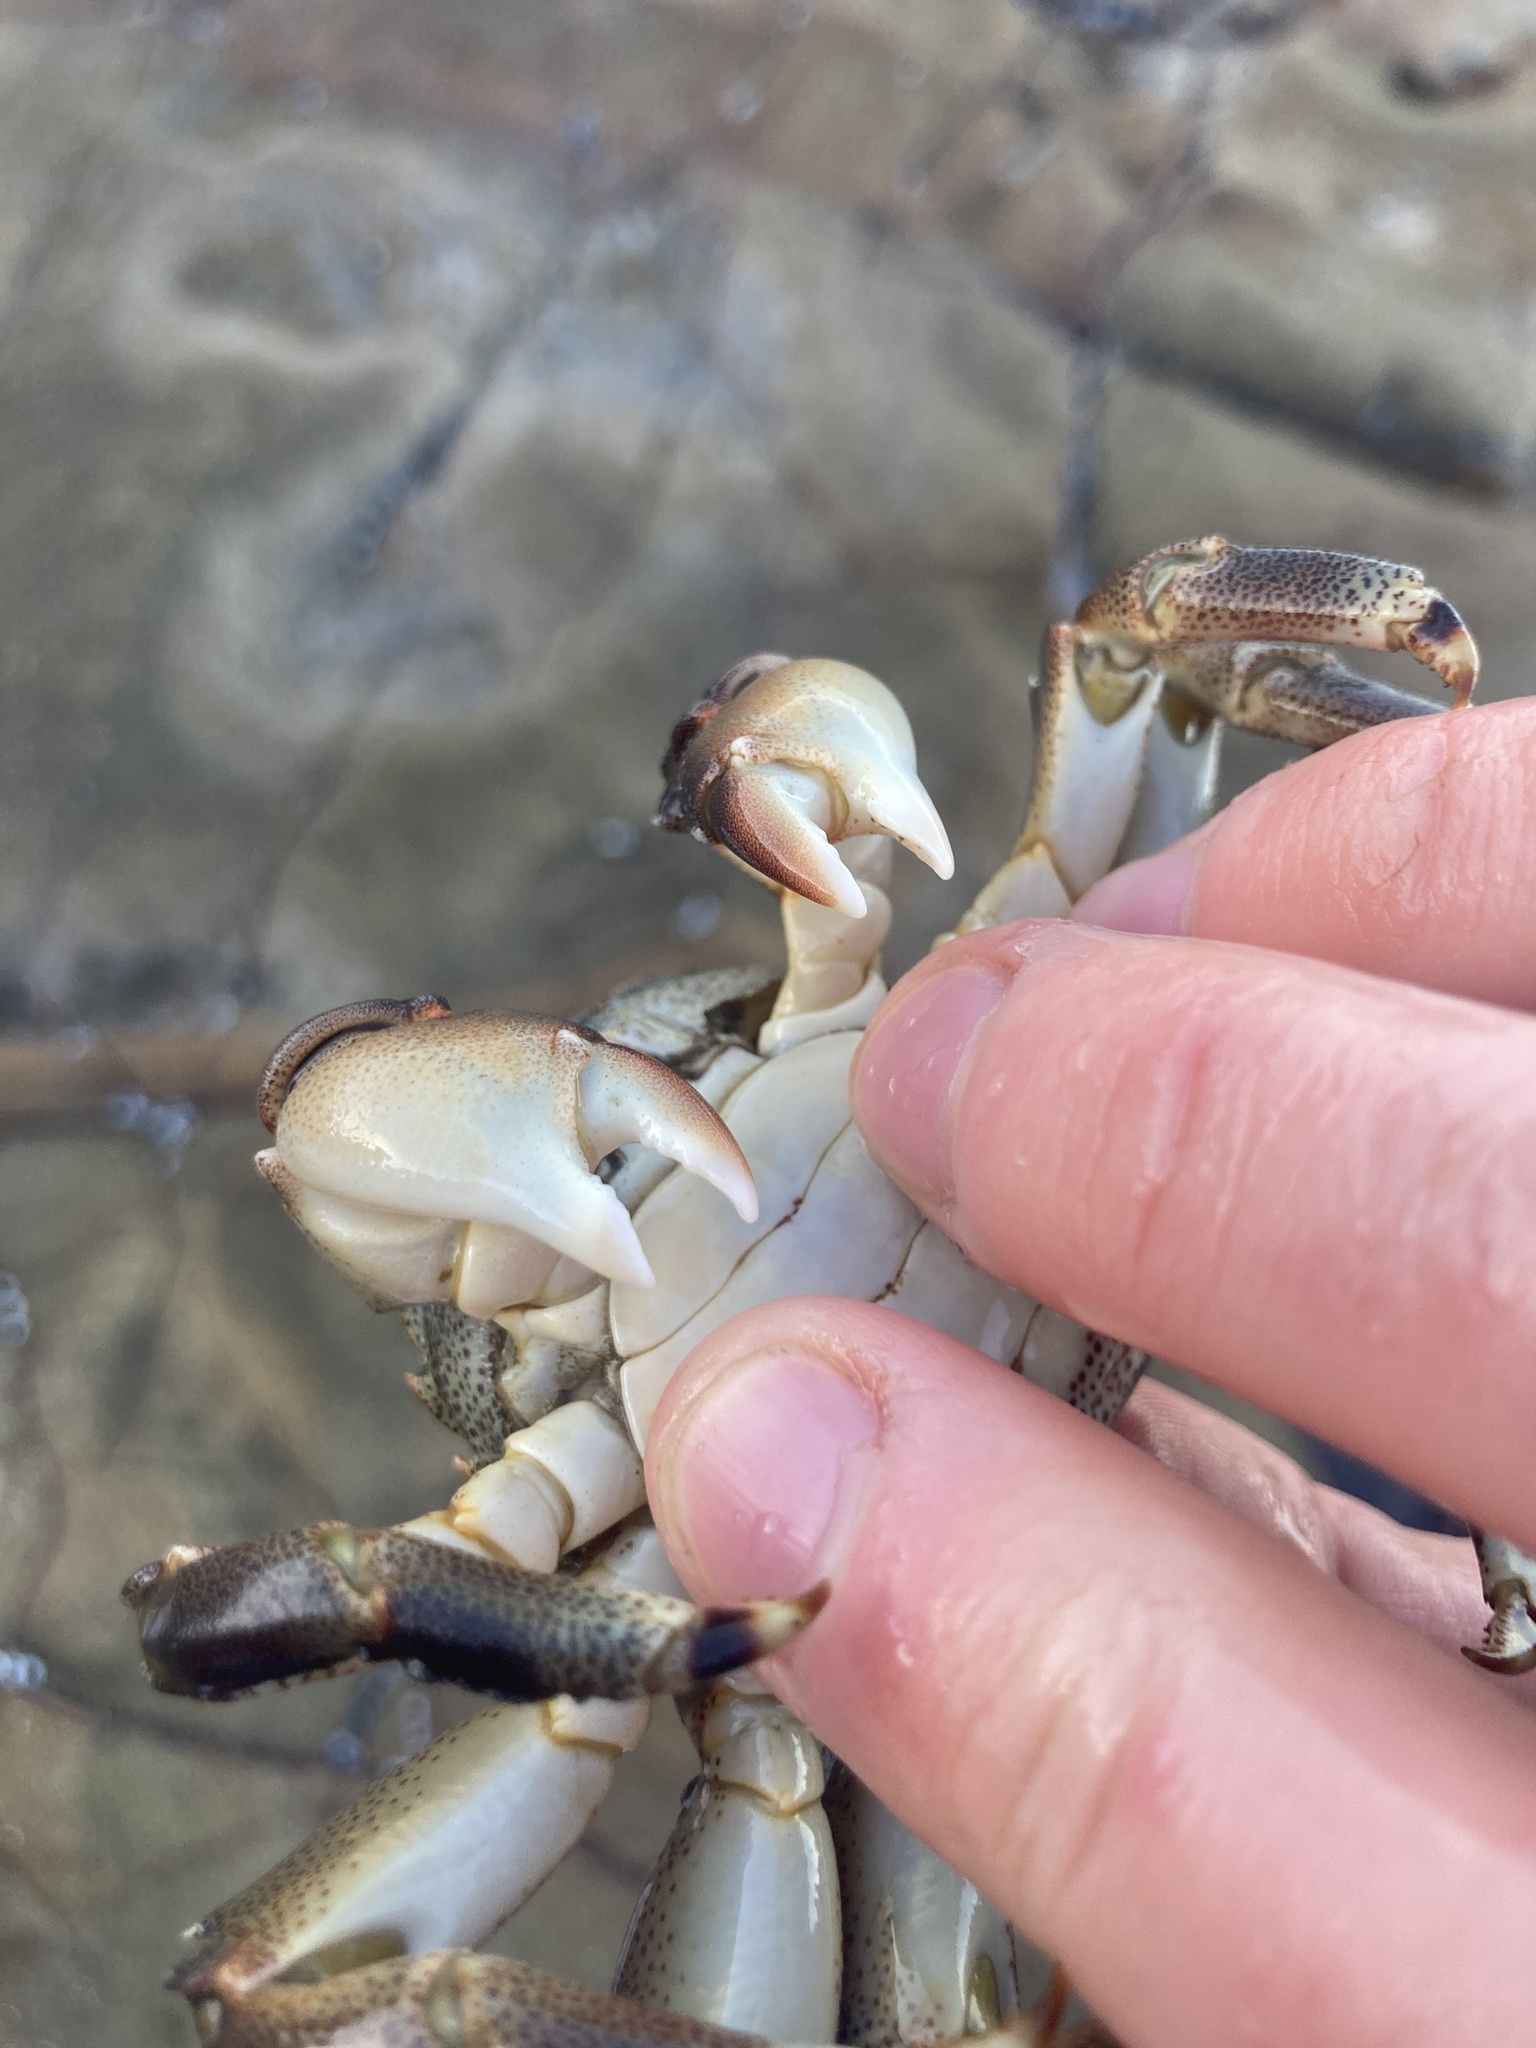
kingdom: Animalia
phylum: Arthropoda
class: Malacostraca
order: Decapoda
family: Plagusiidae
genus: Davusia
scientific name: Davusia glabra
